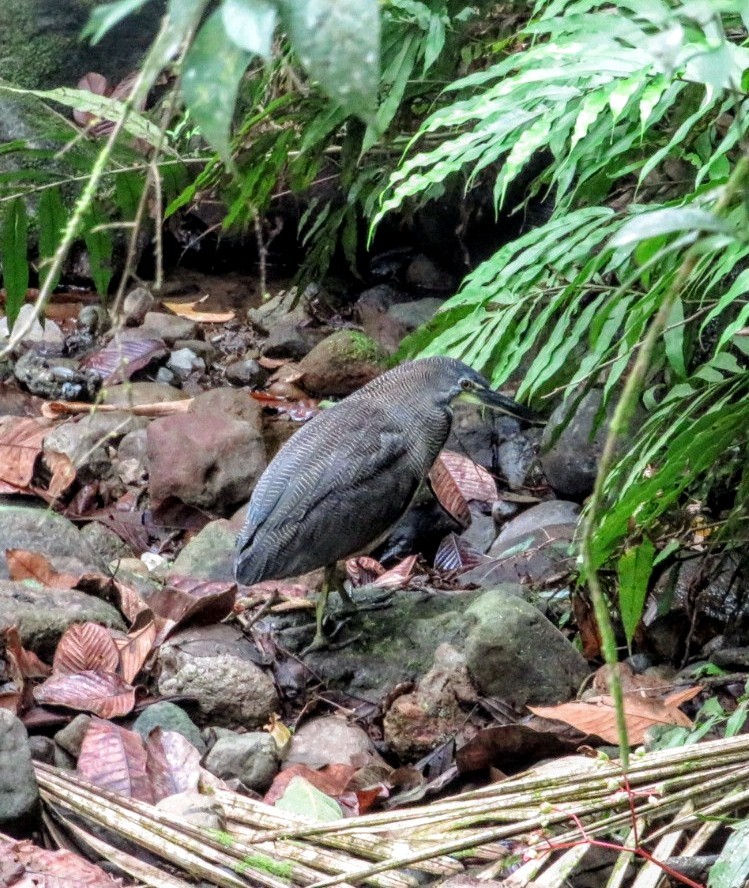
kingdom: Animalia
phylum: Chordata
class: Aves
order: Pelecaniformes
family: Ardeidae
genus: Tigrisoma
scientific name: Tigrisoma fasciatum
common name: Fasciated tiger-heron
